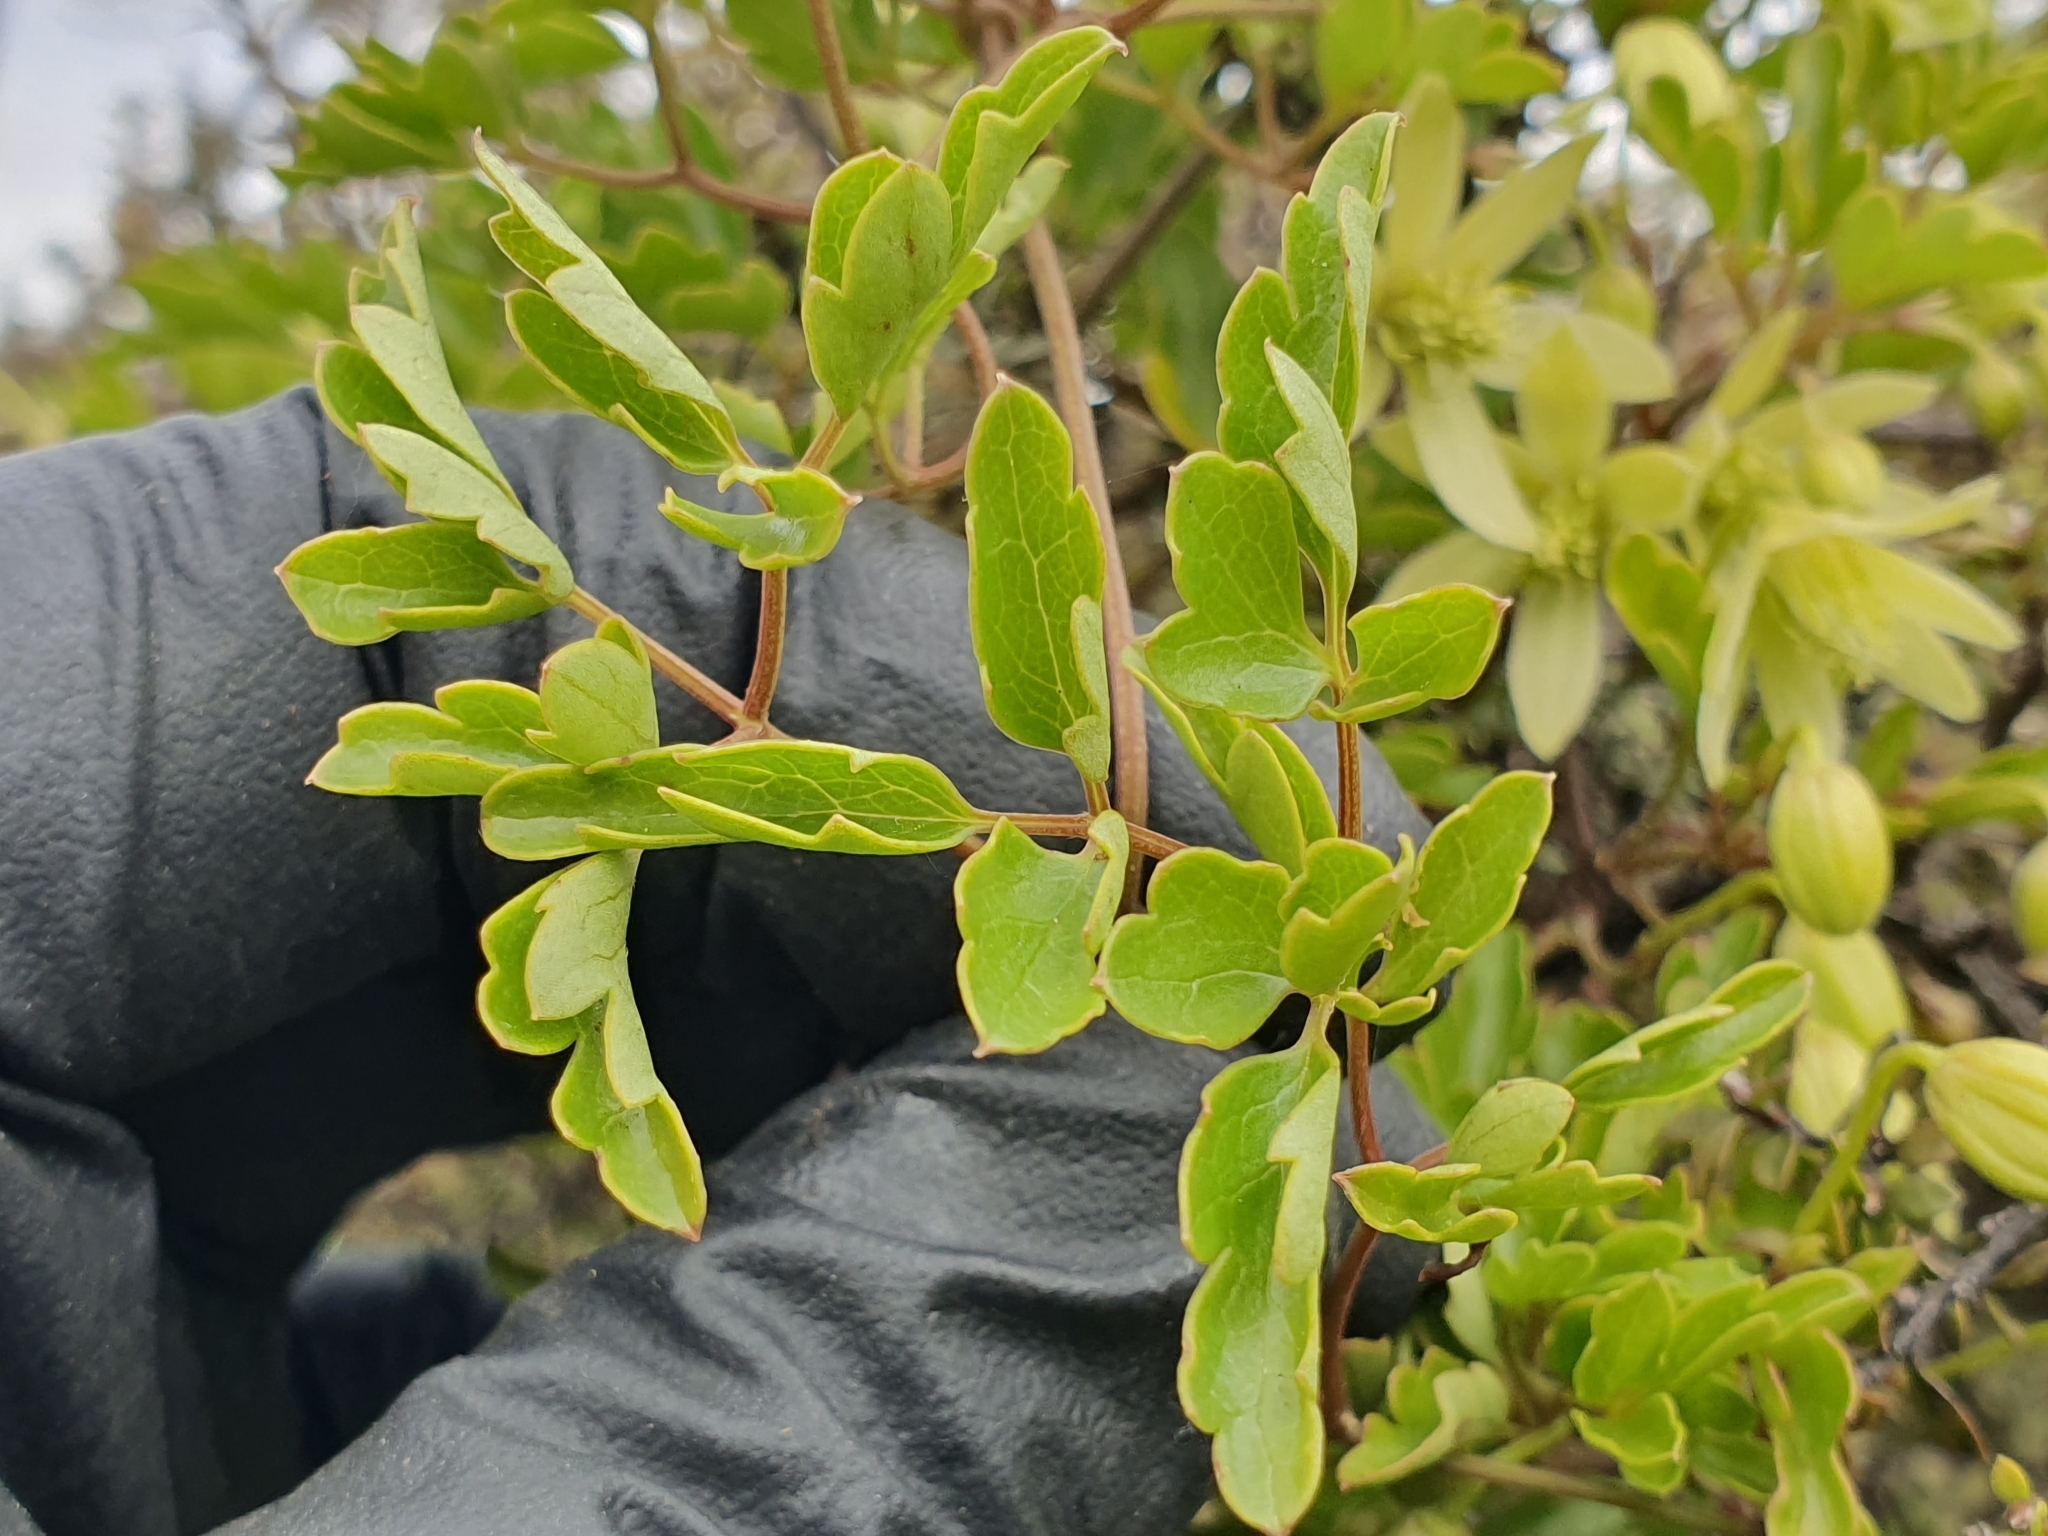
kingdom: Plantae
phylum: Tracheophyta
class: Magnoliopsida
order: Ranunculales
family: Ranunculaceae
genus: Clematis
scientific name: Clematis forsteri
